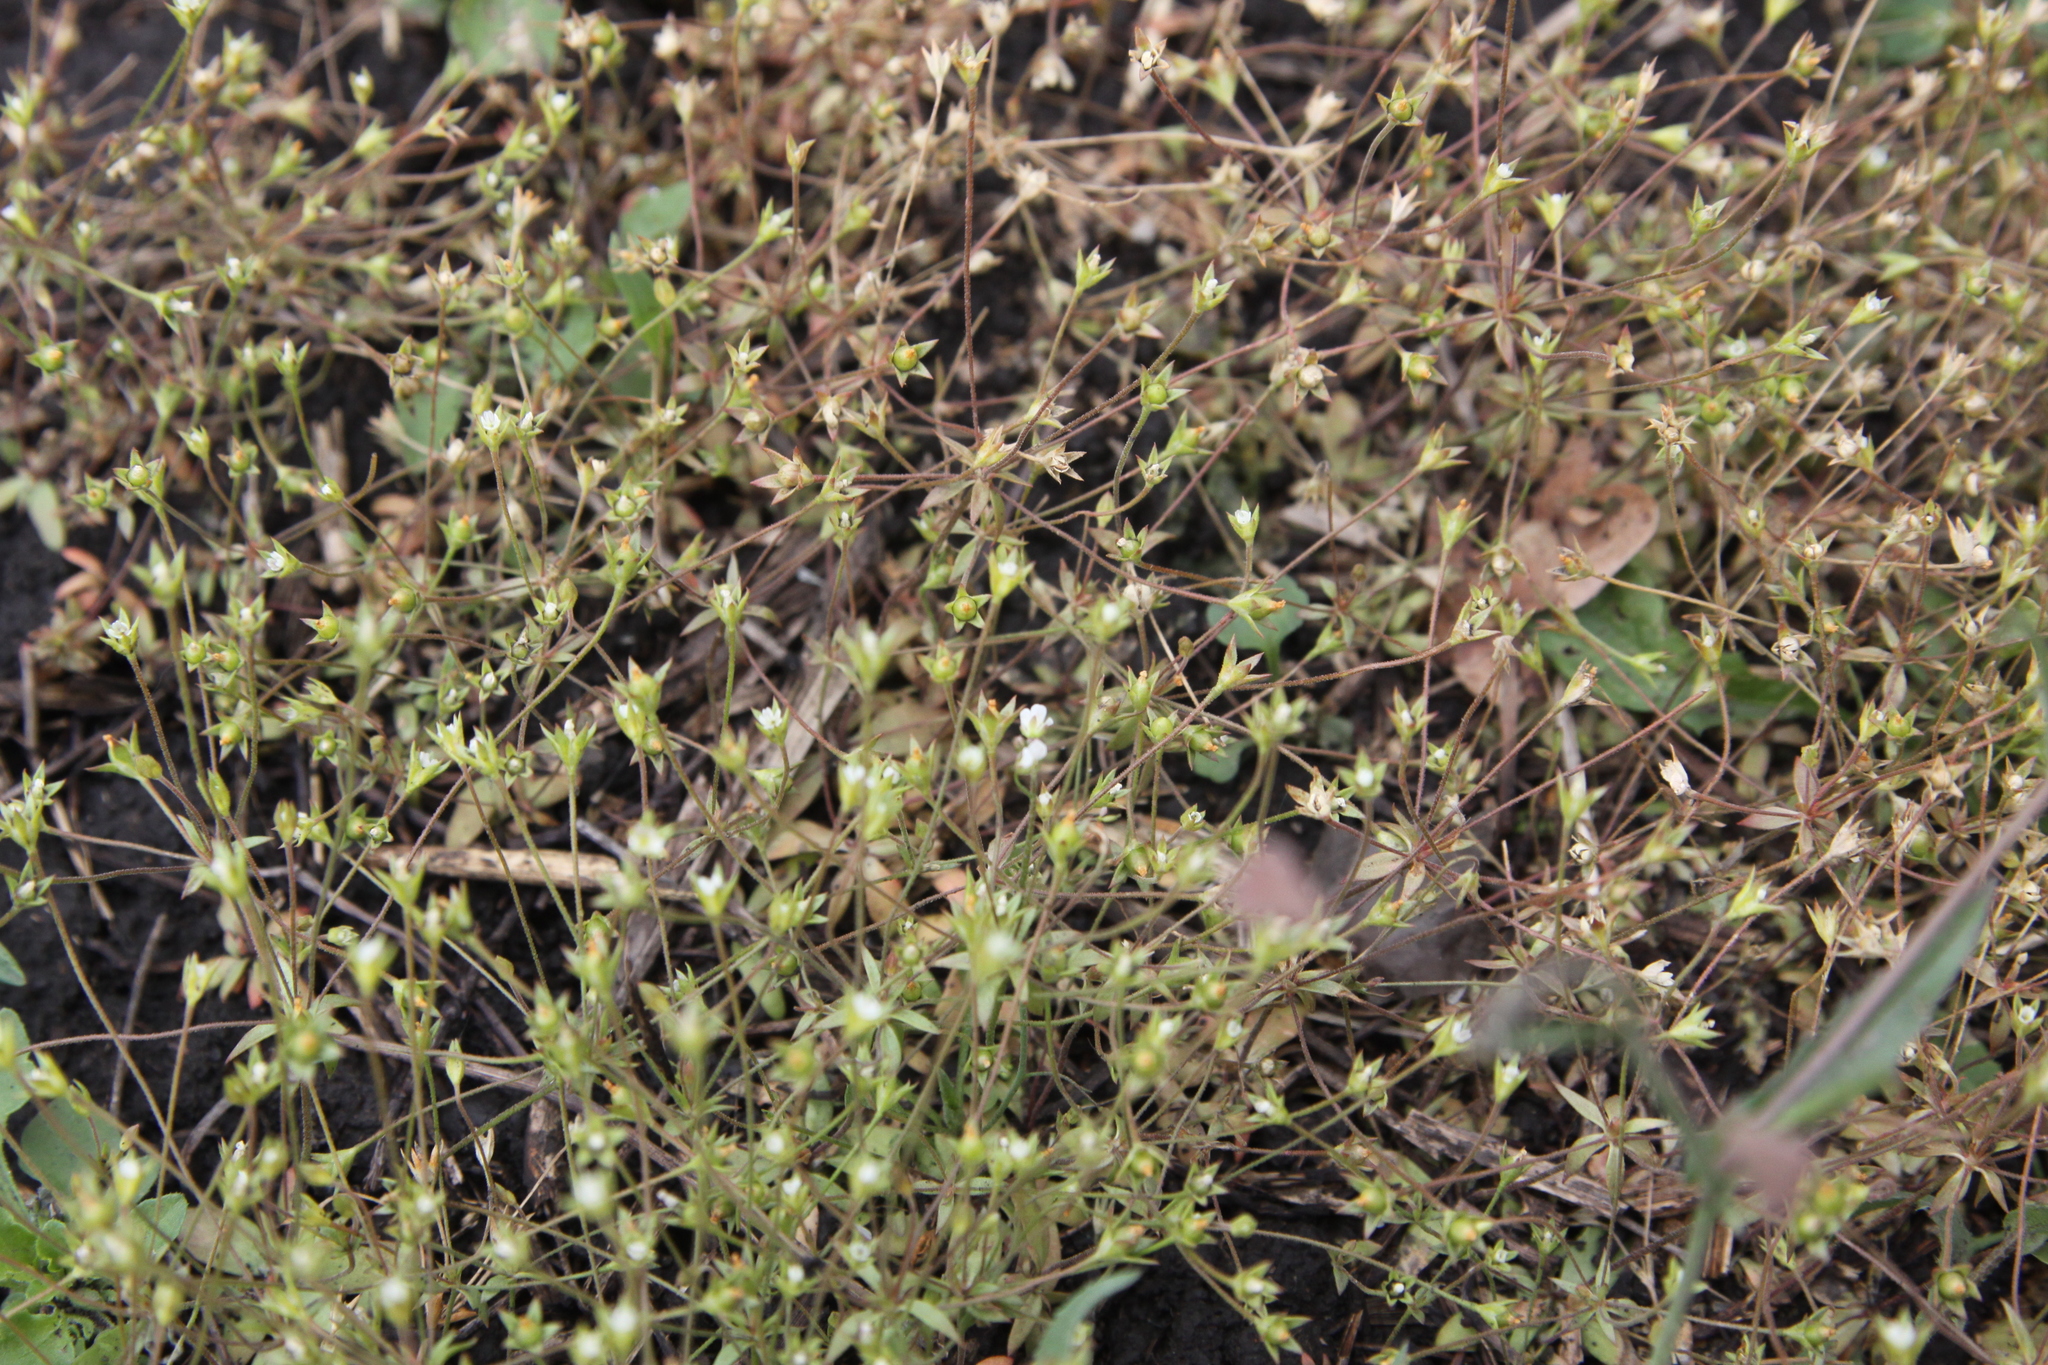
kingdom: Plantae
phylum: Tracheophyta
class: Magnoliopsida
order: Ericales
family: Primulaceae
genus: Androsace
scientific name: Androsace elongata
